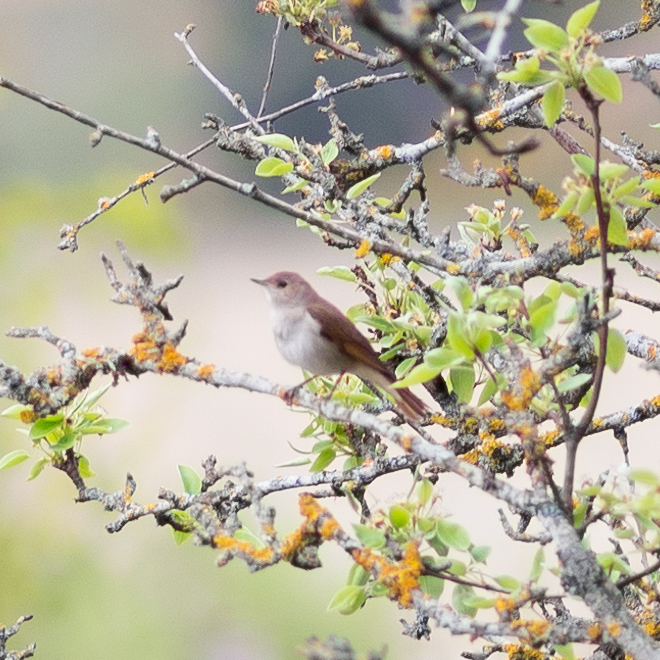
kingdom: Animalia
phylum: Chordata
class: Aves
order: Passeriformes
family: Muscicapidae
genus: Luscinia
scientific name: Luscinia megarhynchos
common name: Common nightingale
